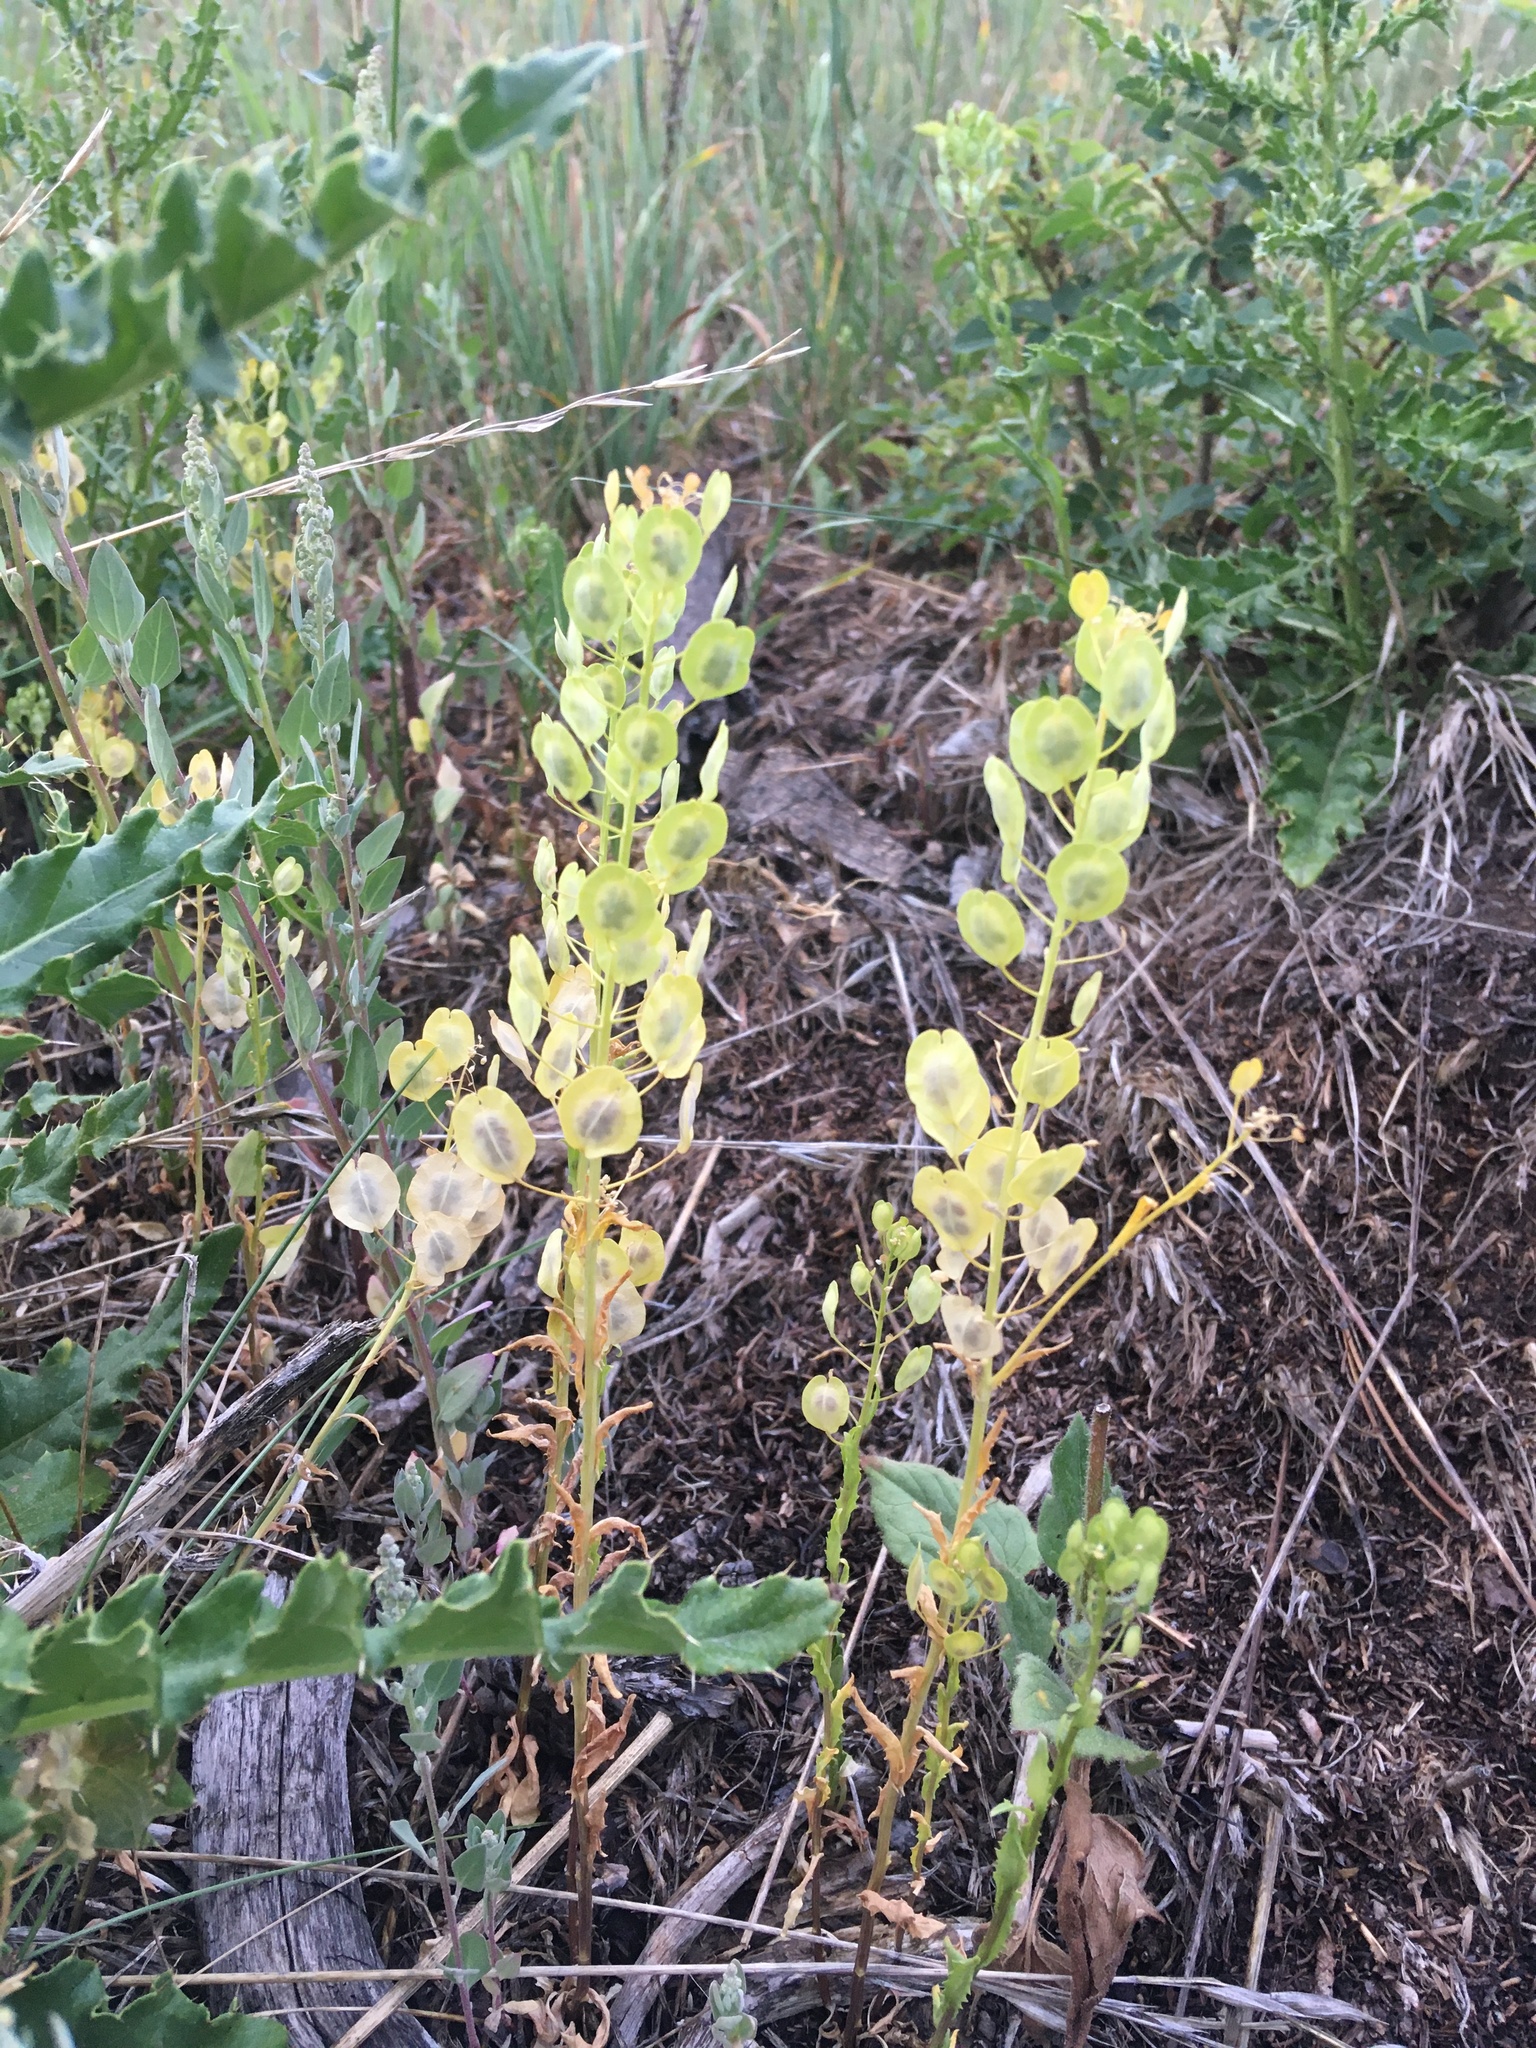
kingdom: Plantae
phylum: Tracheophyta
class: Magnoliopsida
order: Brassicales
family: Brassicaceae
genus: Thlaspi
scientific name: Thlaspi arvense
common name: Field pennycress
